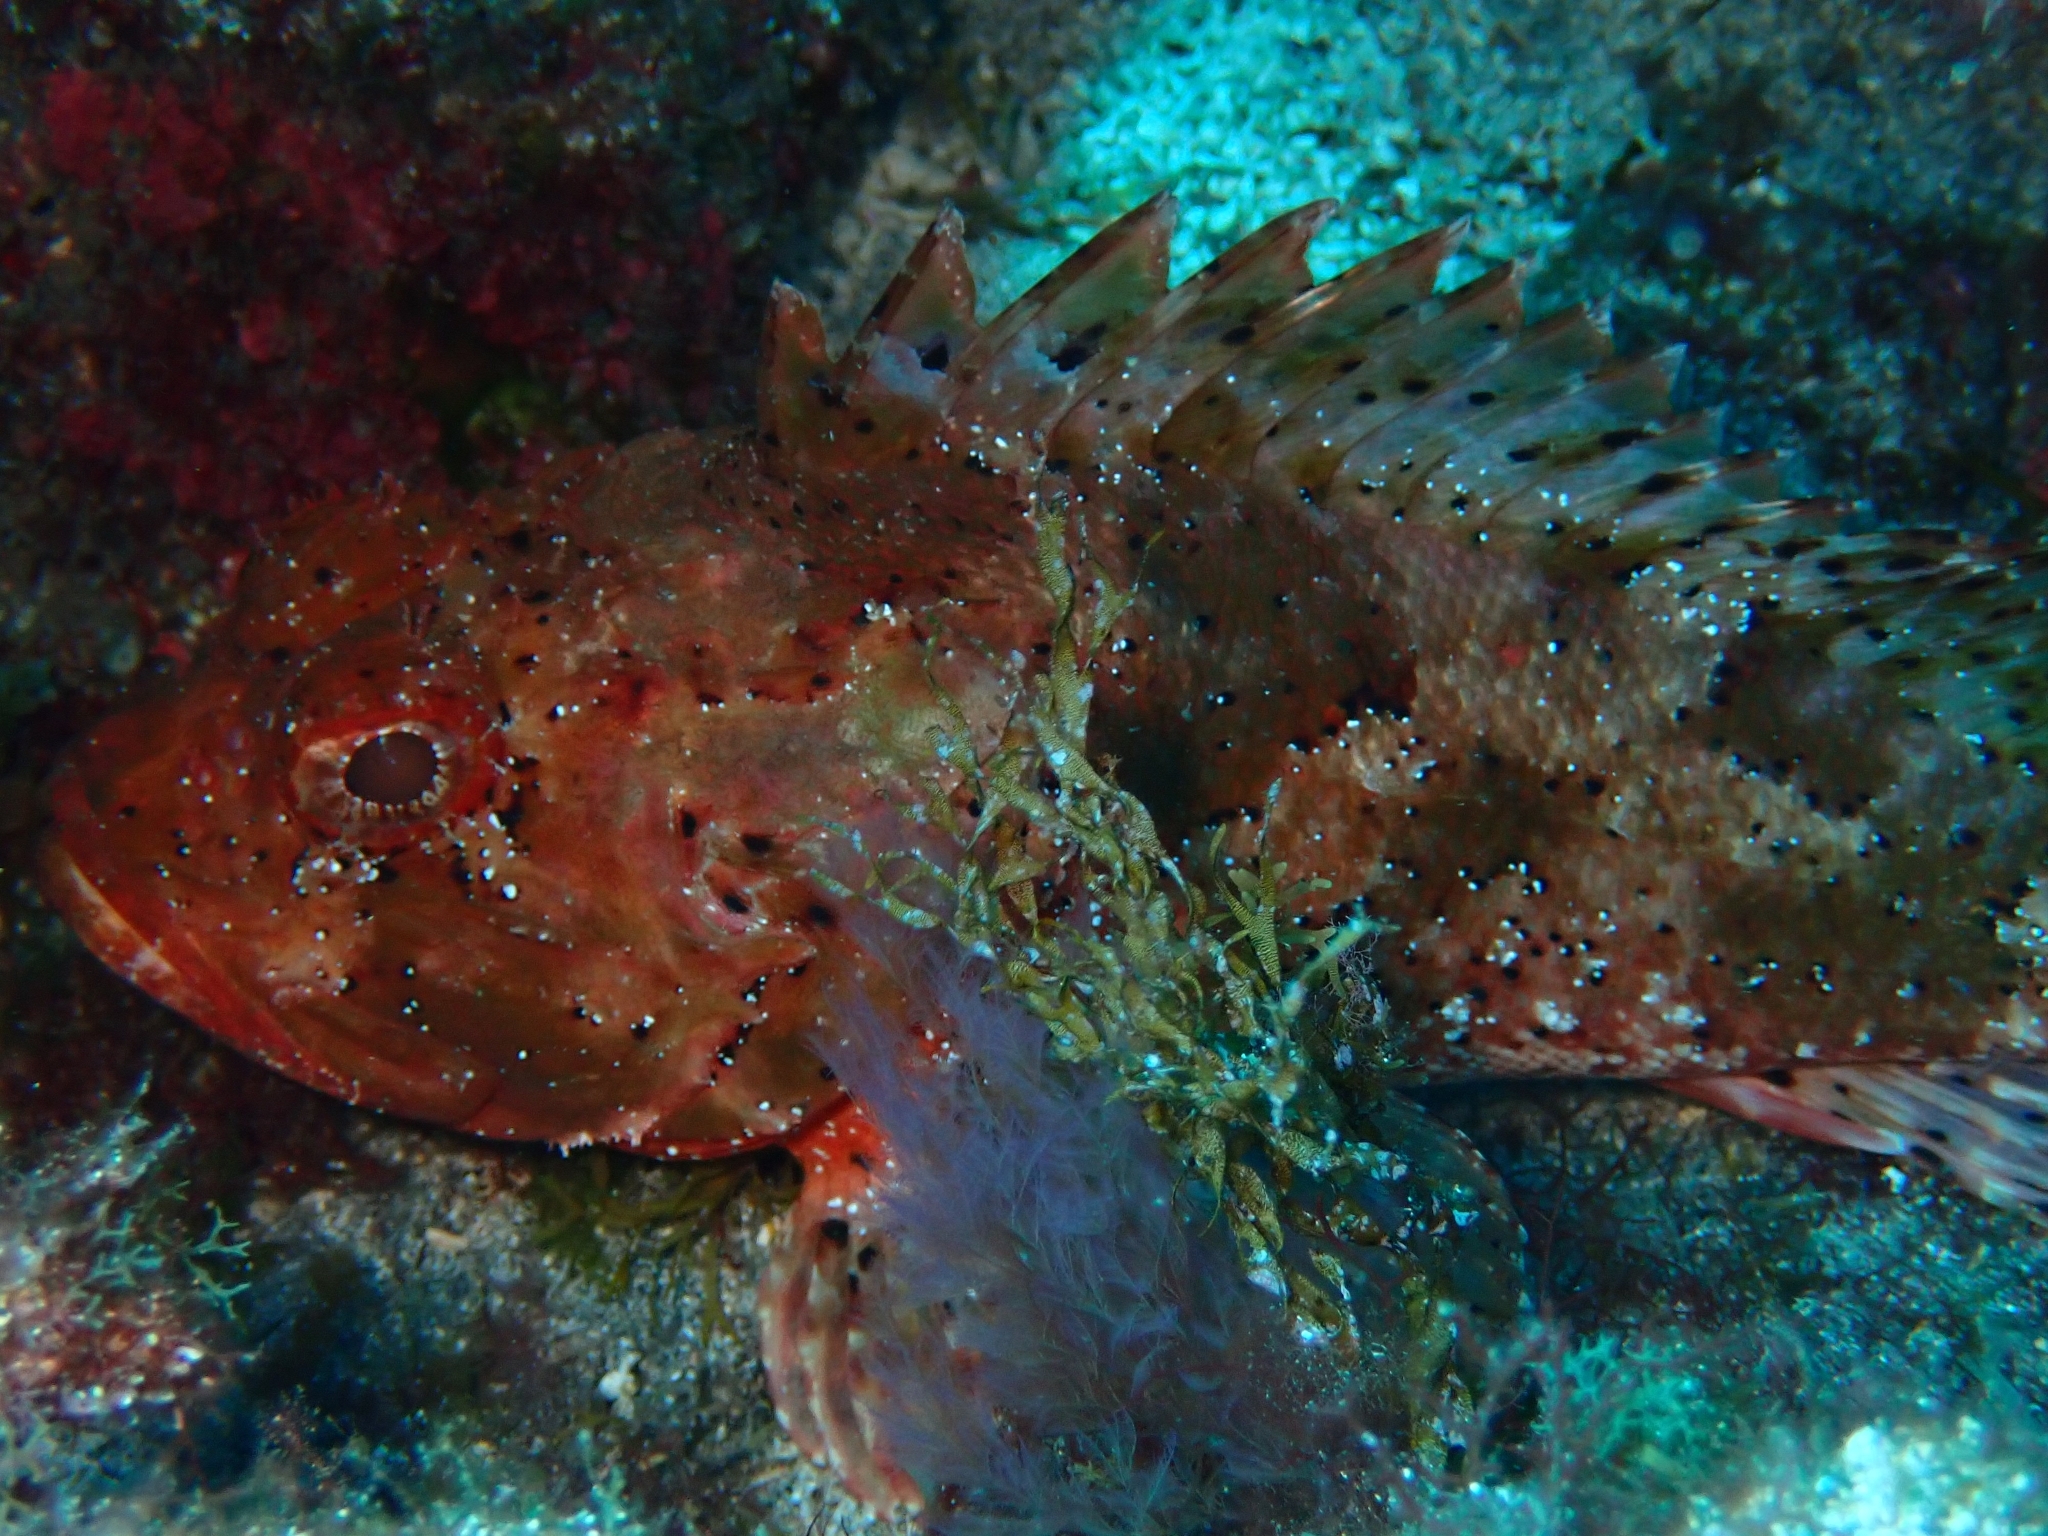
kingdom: Animalia
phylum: Chordata
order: Scorpaeniformes
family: Scorpaenidae
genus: Scorpaena
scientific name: Scorpaena porcus
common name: Black scorpionfish
